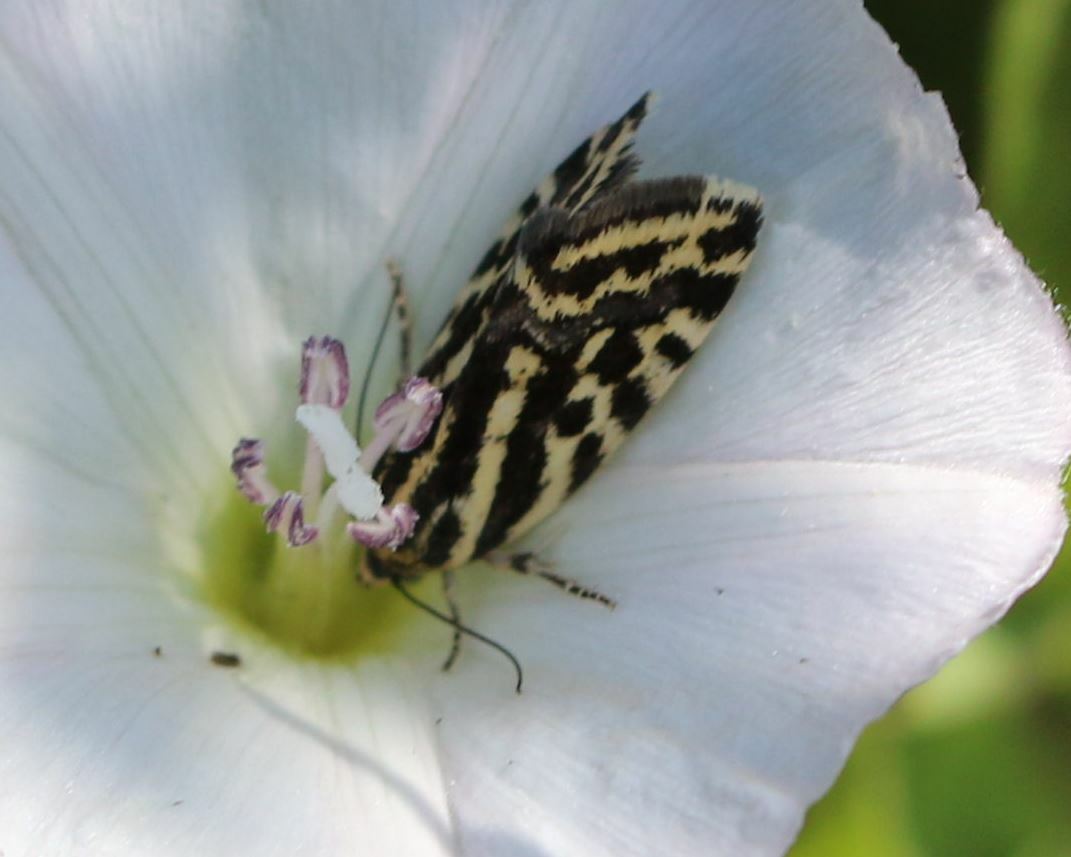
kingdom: Animalia
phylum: Arthropoda
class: Insecta
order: Lepidoptera
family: Noctuidae
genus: Acontia
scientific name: Acontia trabealis
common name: Spotted sulphur
